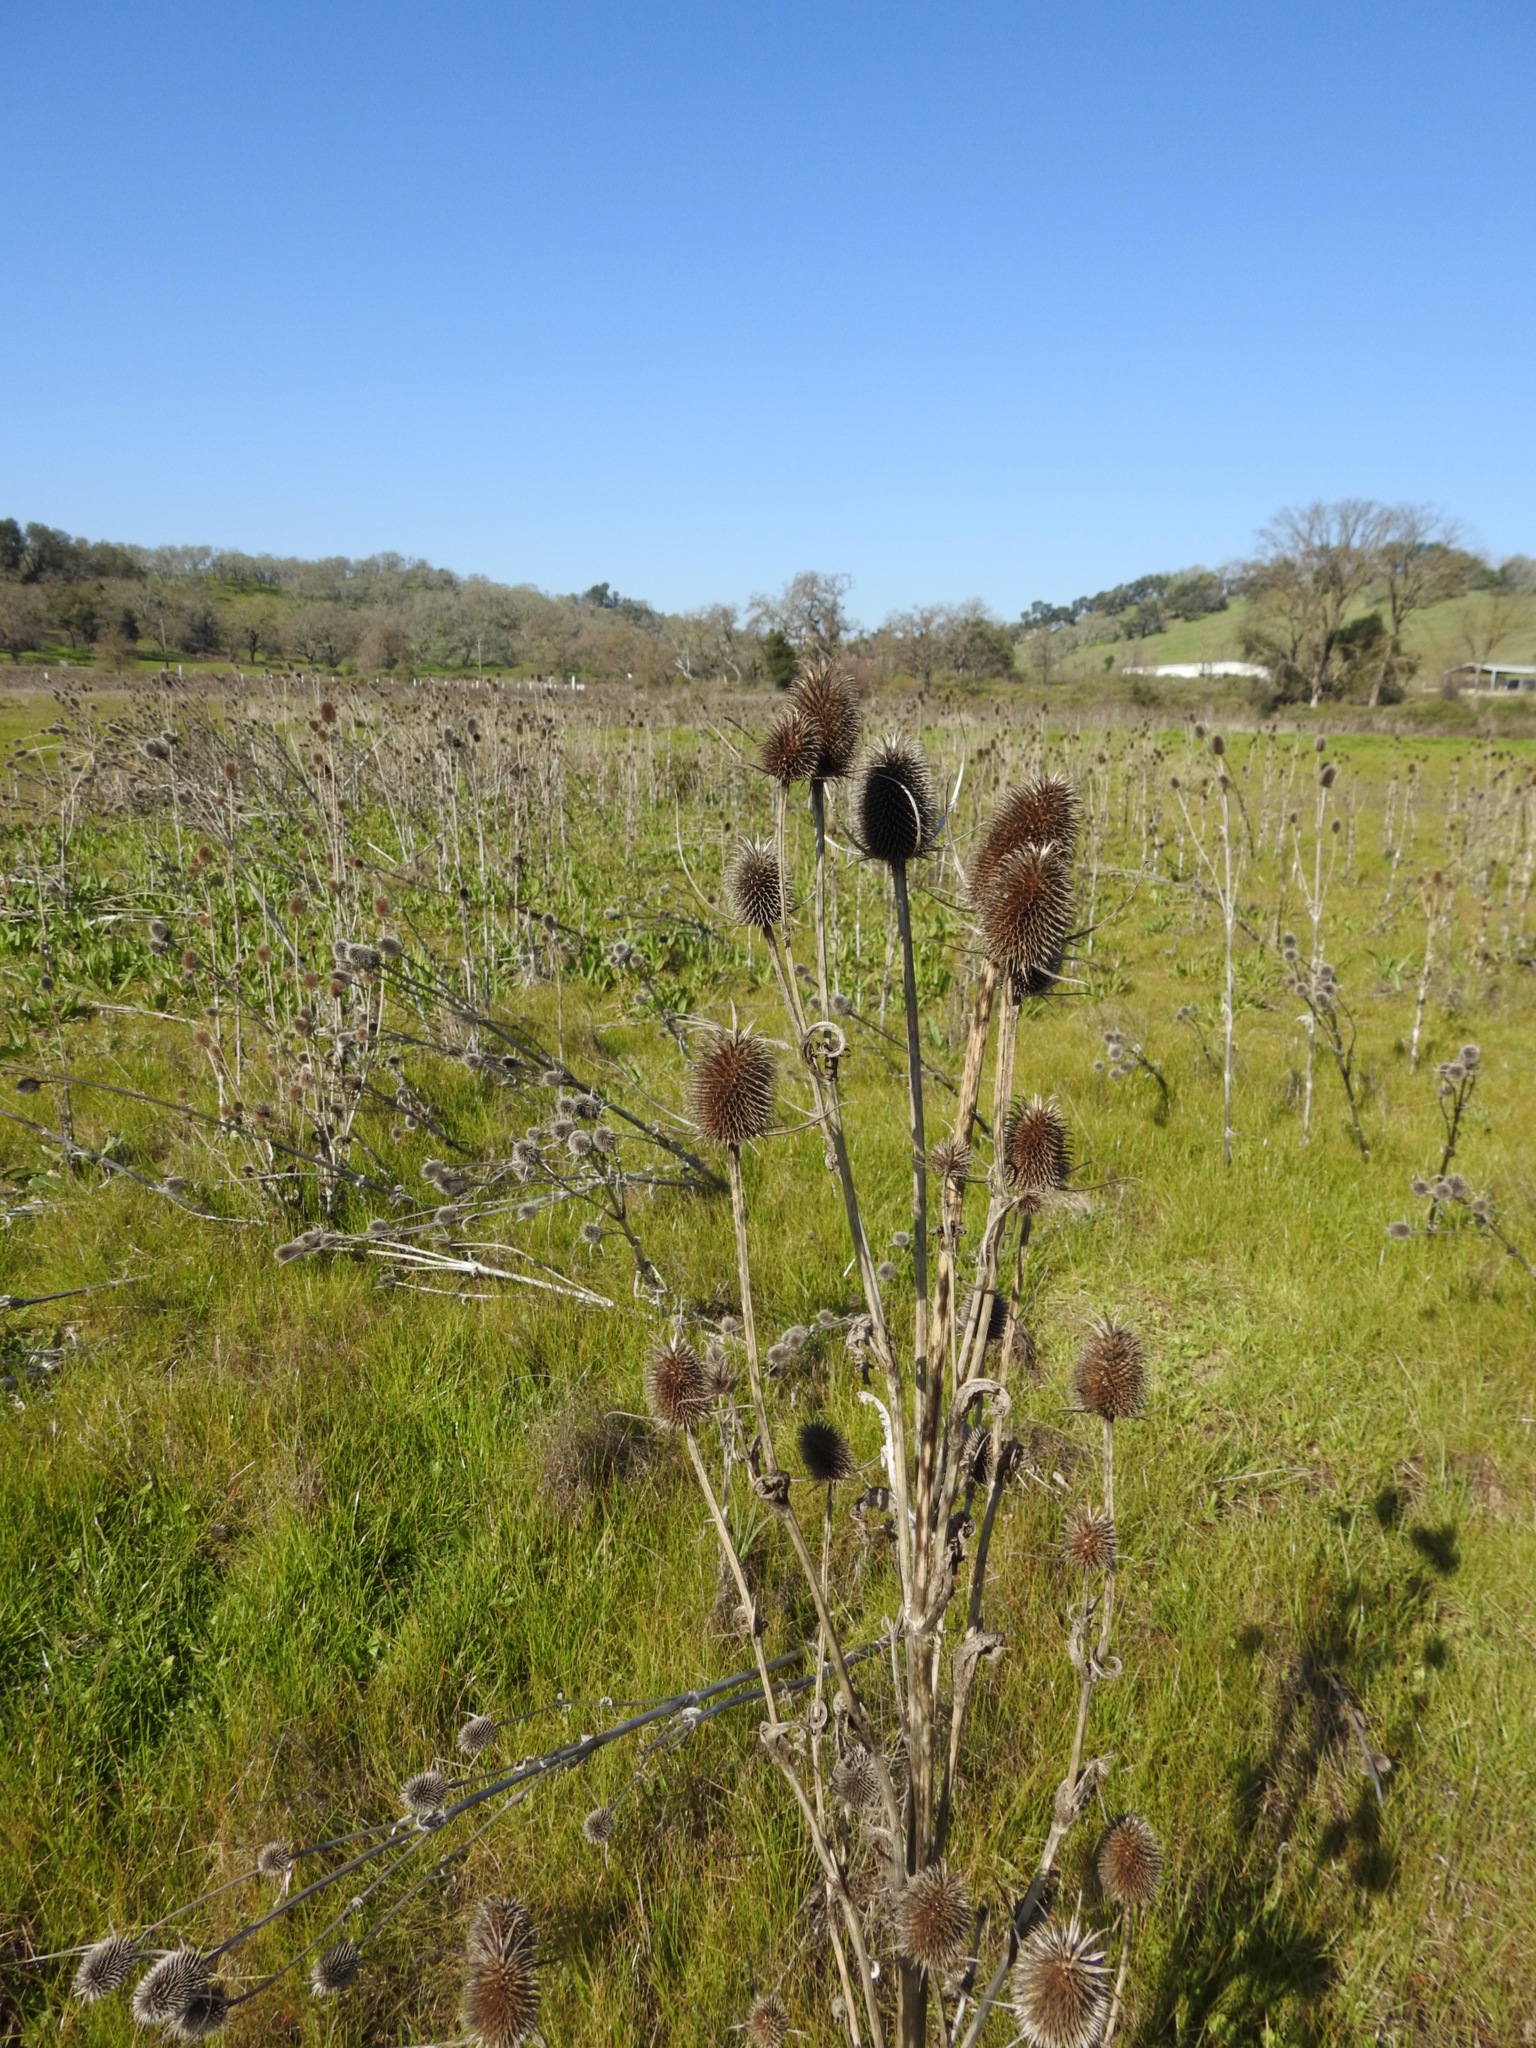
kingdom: Plantae
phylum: Tracheophyta
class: Magnoliopsida
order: Dipsacales
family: Caprifoliaceae
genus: Dipsacus
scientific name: Dipsacus sativus
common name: Fuller's teasel
